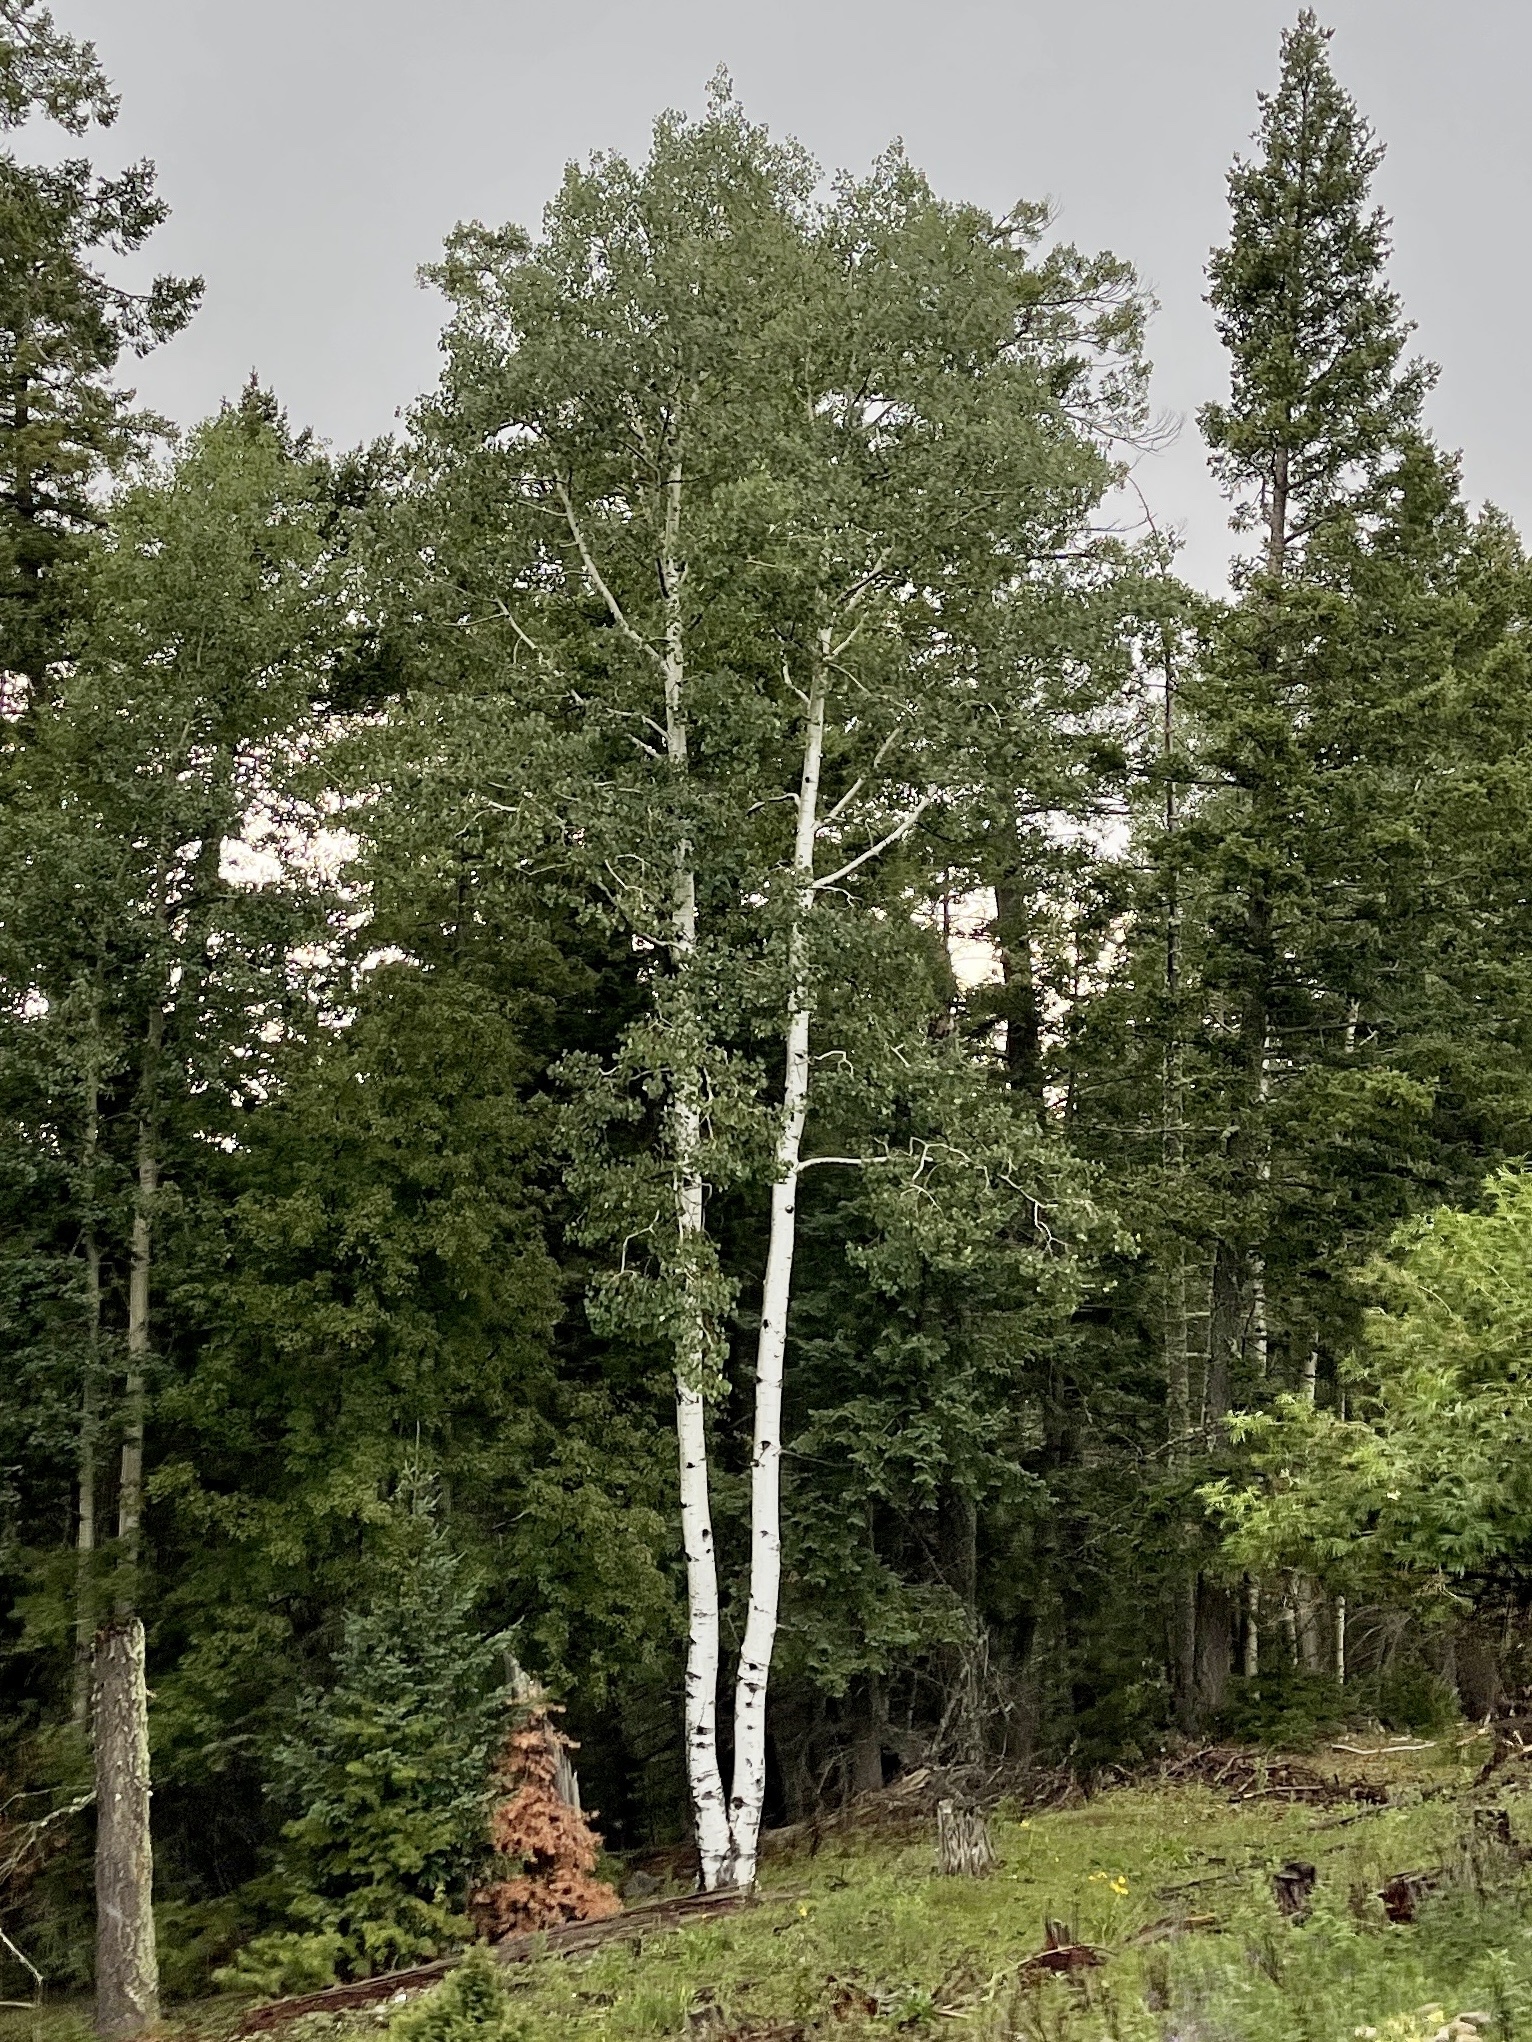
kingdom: Plantae
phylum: Tracheophyta
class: Magnoliopsida
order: Malpighiales
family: Salicaceae
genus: Populus
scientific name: Populus tremuloides
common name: Quaking aspen
